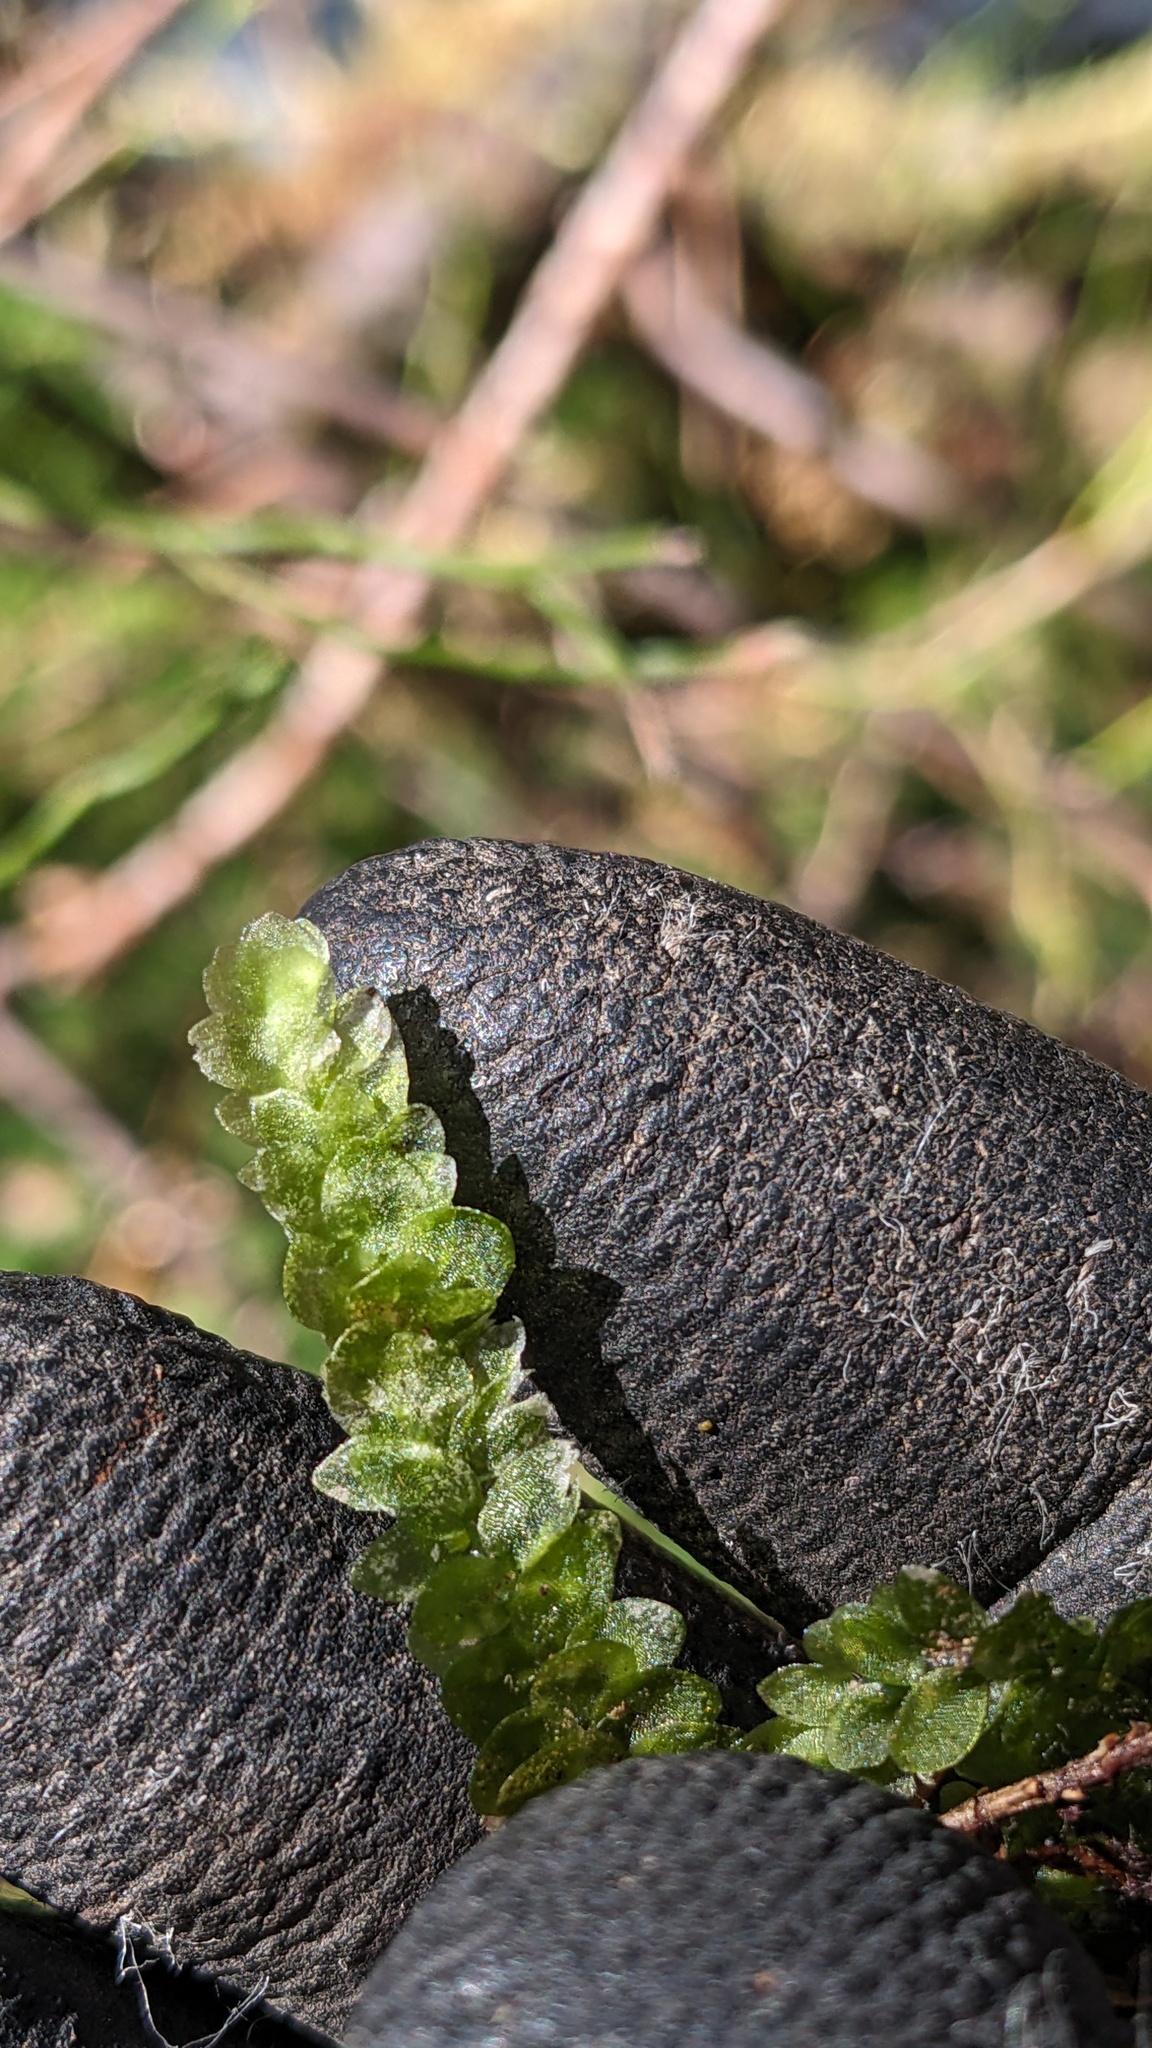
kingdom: Plantae
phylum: Bryophyta
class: Bryopsida
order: Hookeriales
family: Hookeriaceae
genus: Hookeria
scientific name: Hookeria lucens
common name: Shining hookeria
